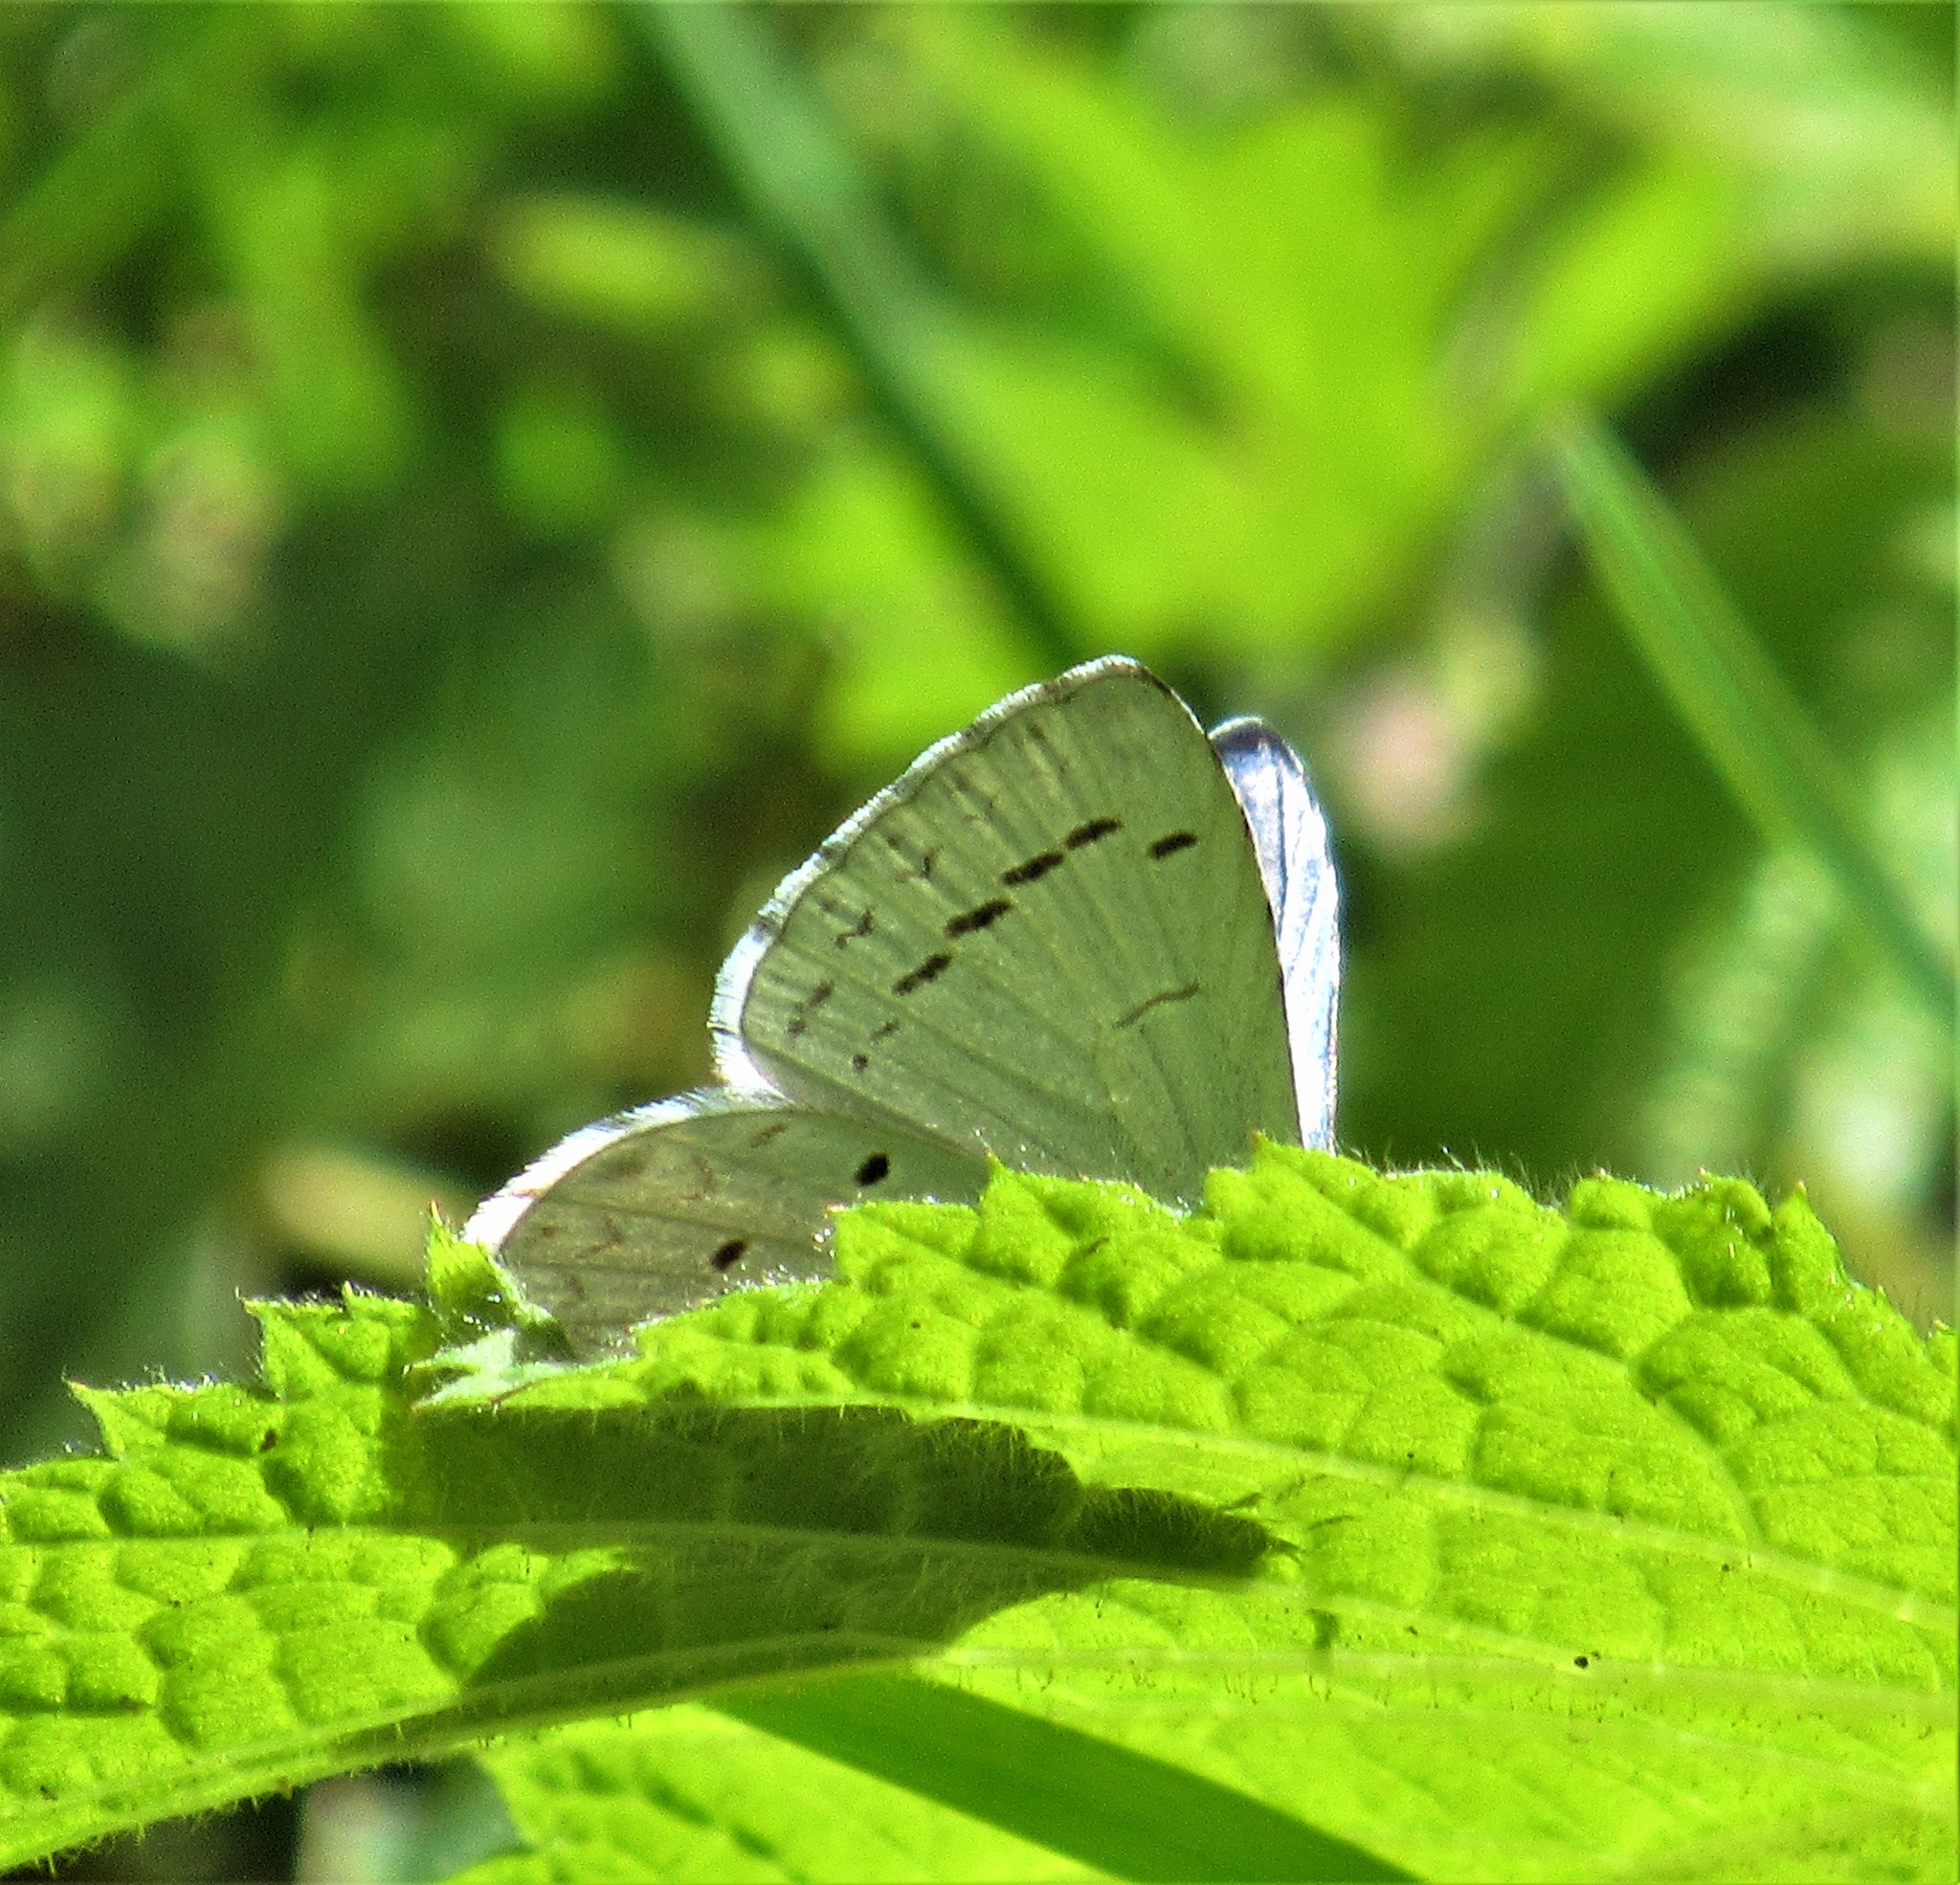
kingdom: Animalia
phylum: Arthropoda
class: Insecta
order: Lepidoptera
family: Lycaenidae
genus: Celastrina
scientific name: Celastrina ladon
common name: Spring azure
